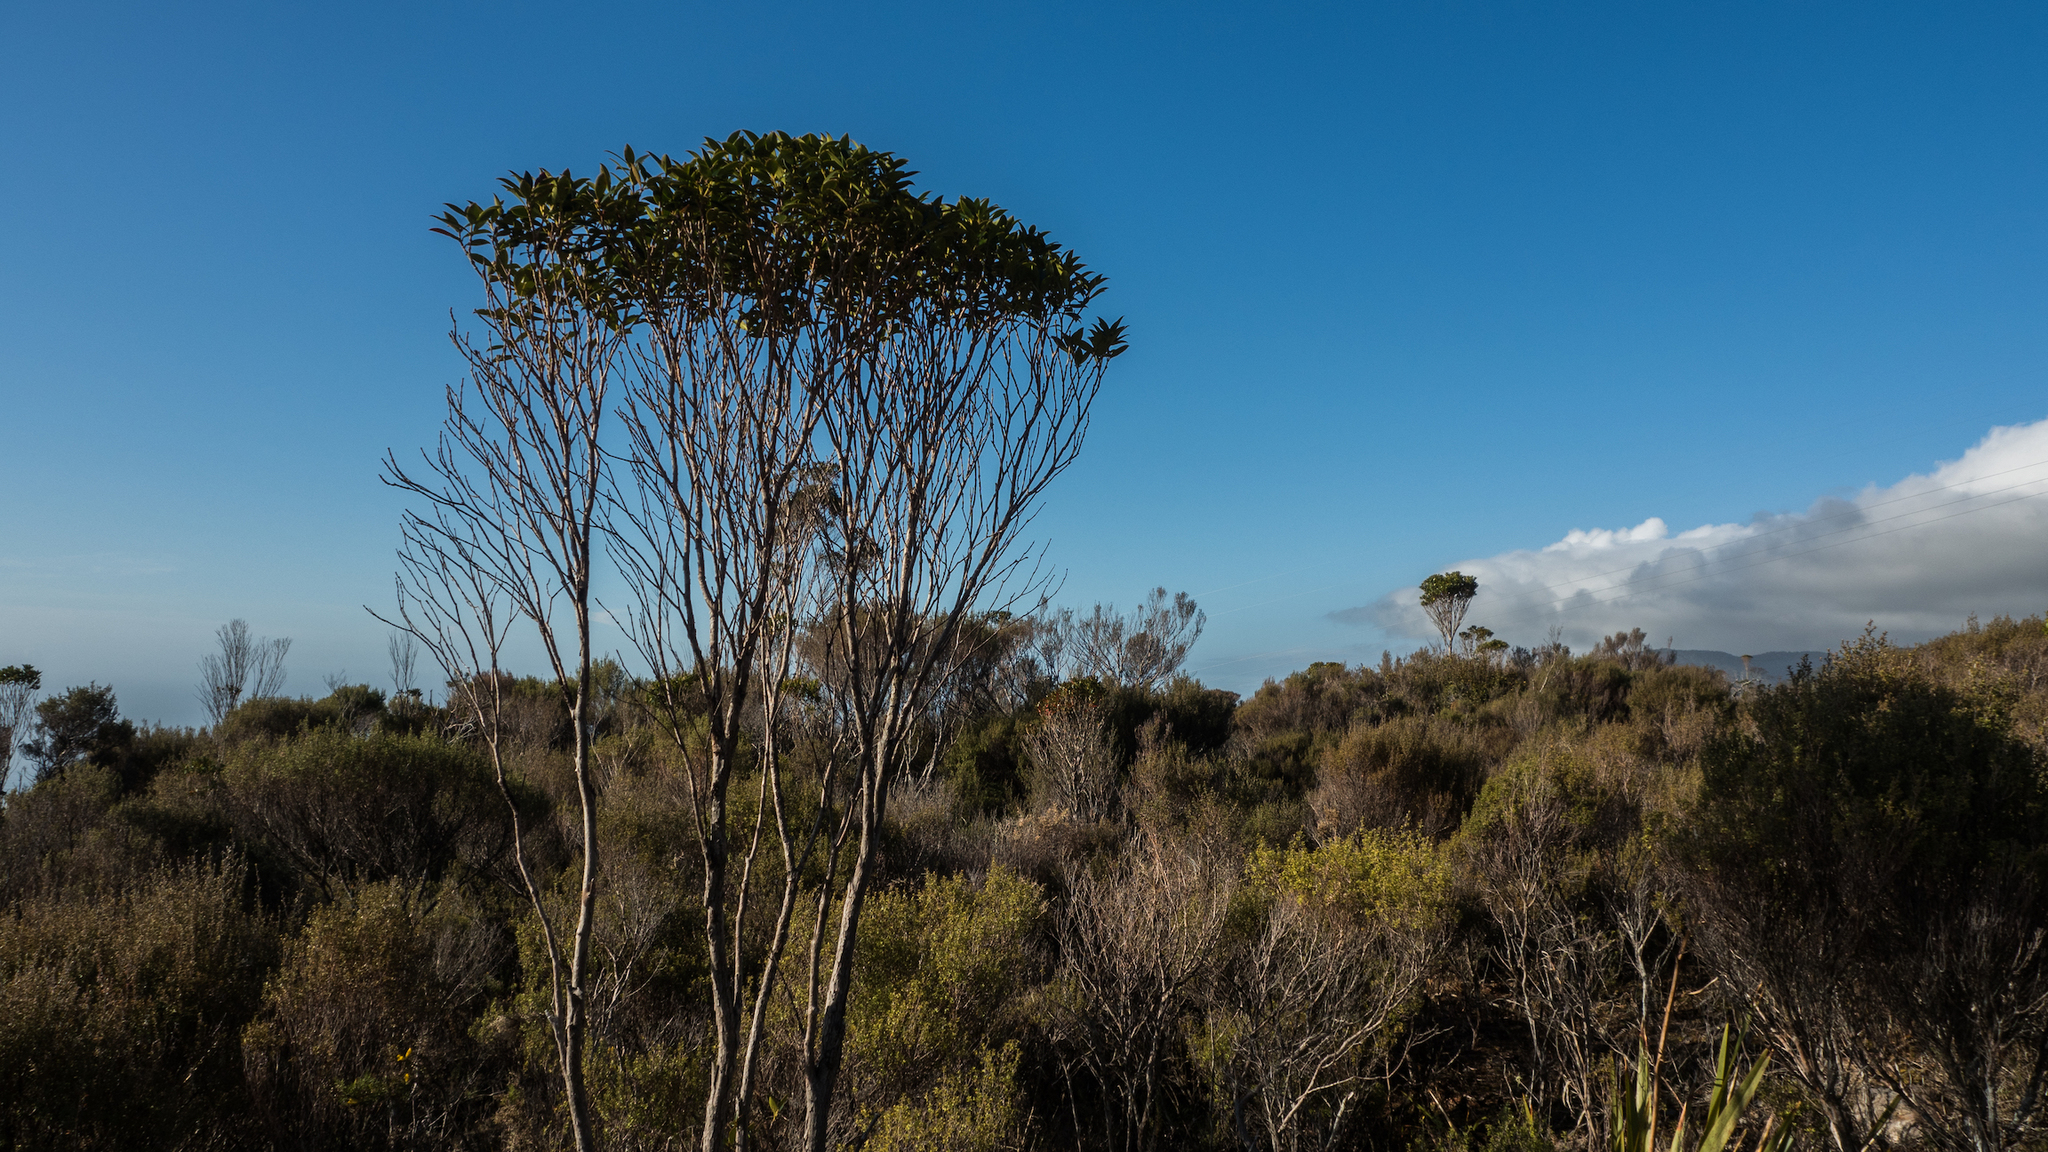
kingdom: Plantae
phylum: Tracheophyta
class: Magnoliopsida
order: Myrtales
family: Myrtaceae
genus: Metrosideros
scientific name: Metrosideros umbellata
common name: Southern rata
